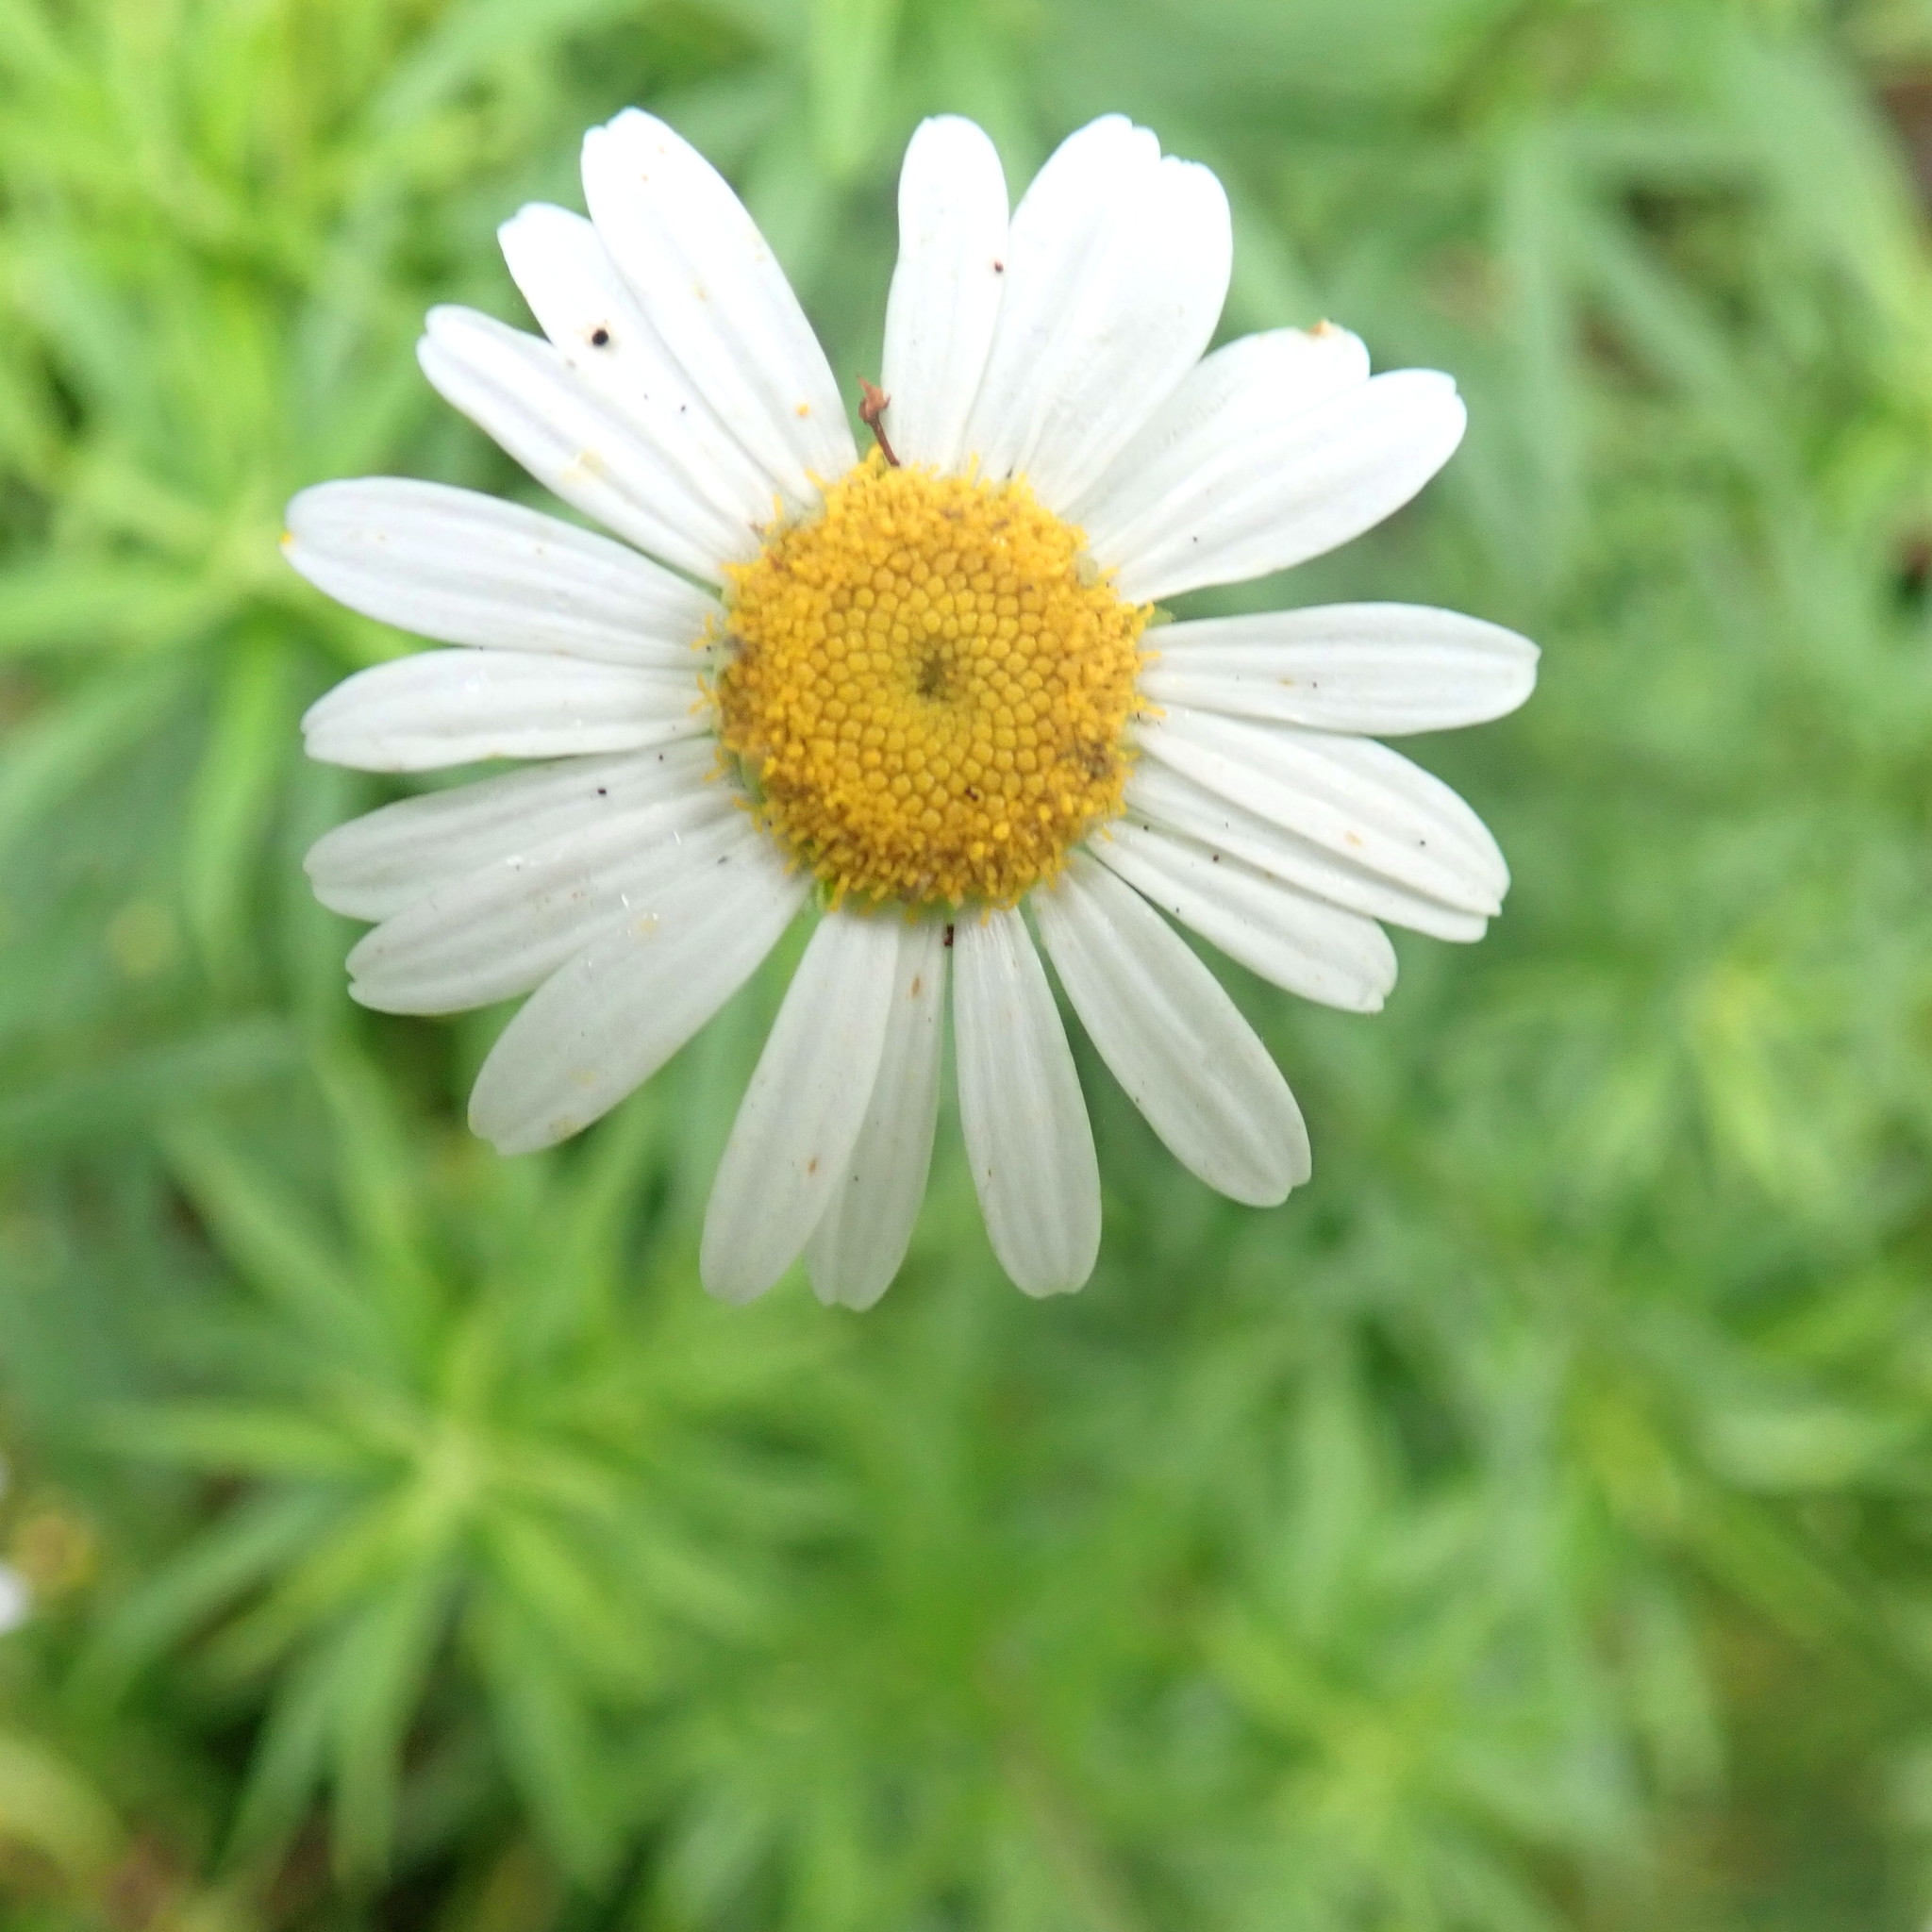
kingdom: Plantae
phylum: Tracheophyta
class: Magnoliopsida
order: Asterales
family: Asteraceae
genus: Osmitopsis
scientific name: Osmitopsis osmitoides
